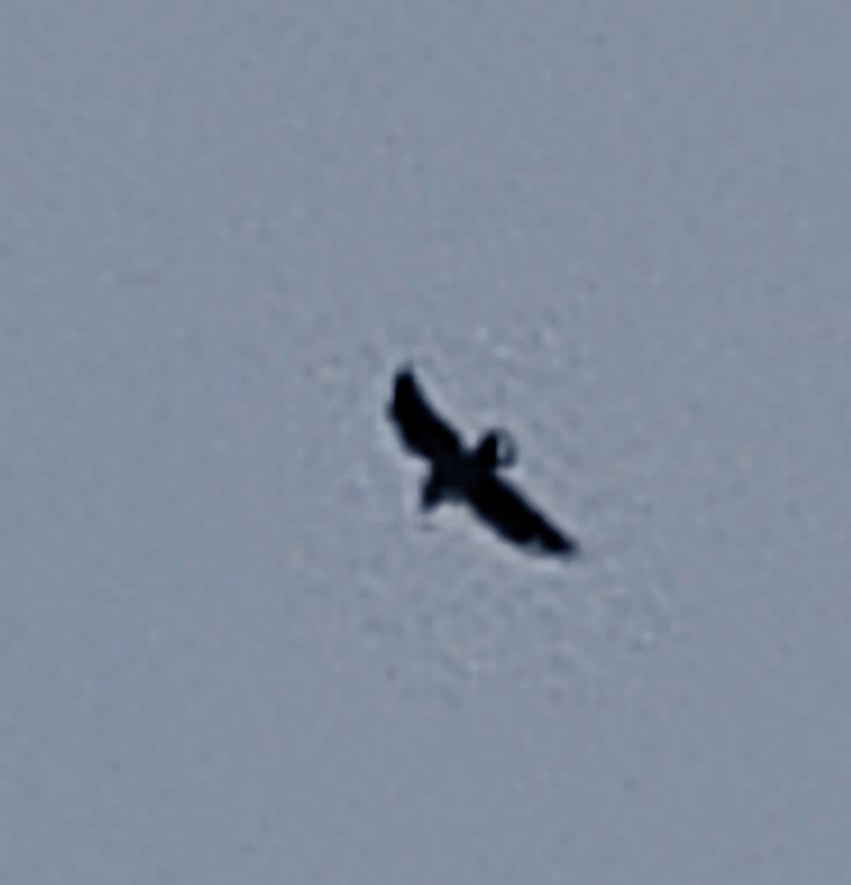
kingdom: Animalia
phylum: Chordata
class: Aves
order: Passeriformes
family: Corvidae
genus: Coloeus
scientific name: Coloeus monedula
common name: Western jackdaw
